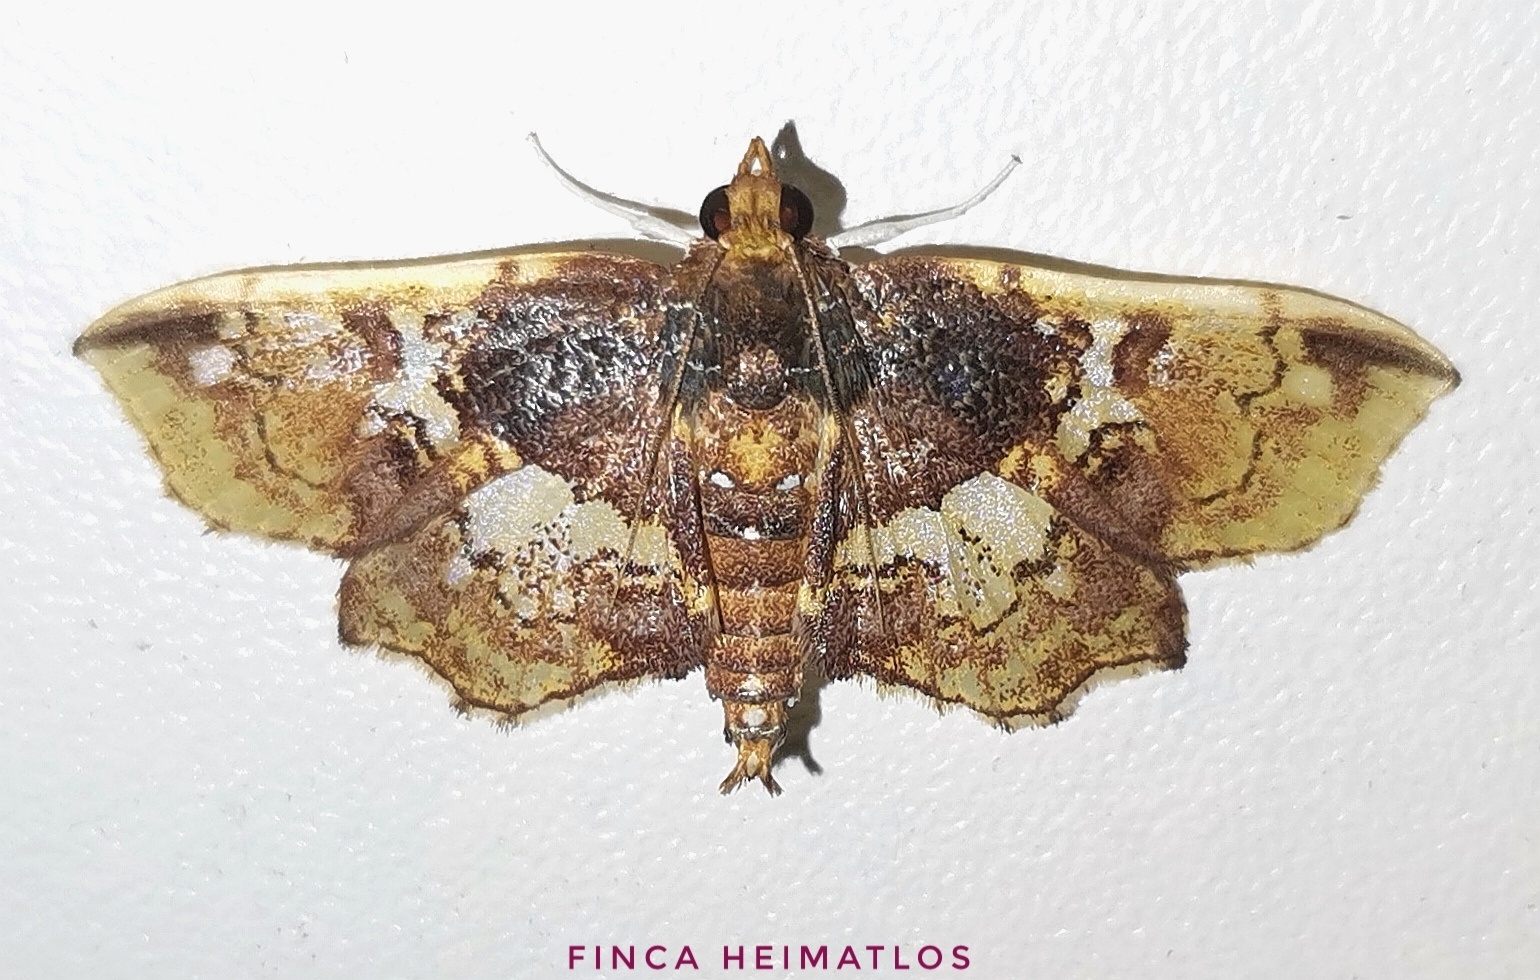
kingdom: Animalia
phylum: Arthropoda
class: Insecta
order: Lepidoptera
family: Crambidae
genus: Megastes
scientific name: Megastes erythrostolalis
